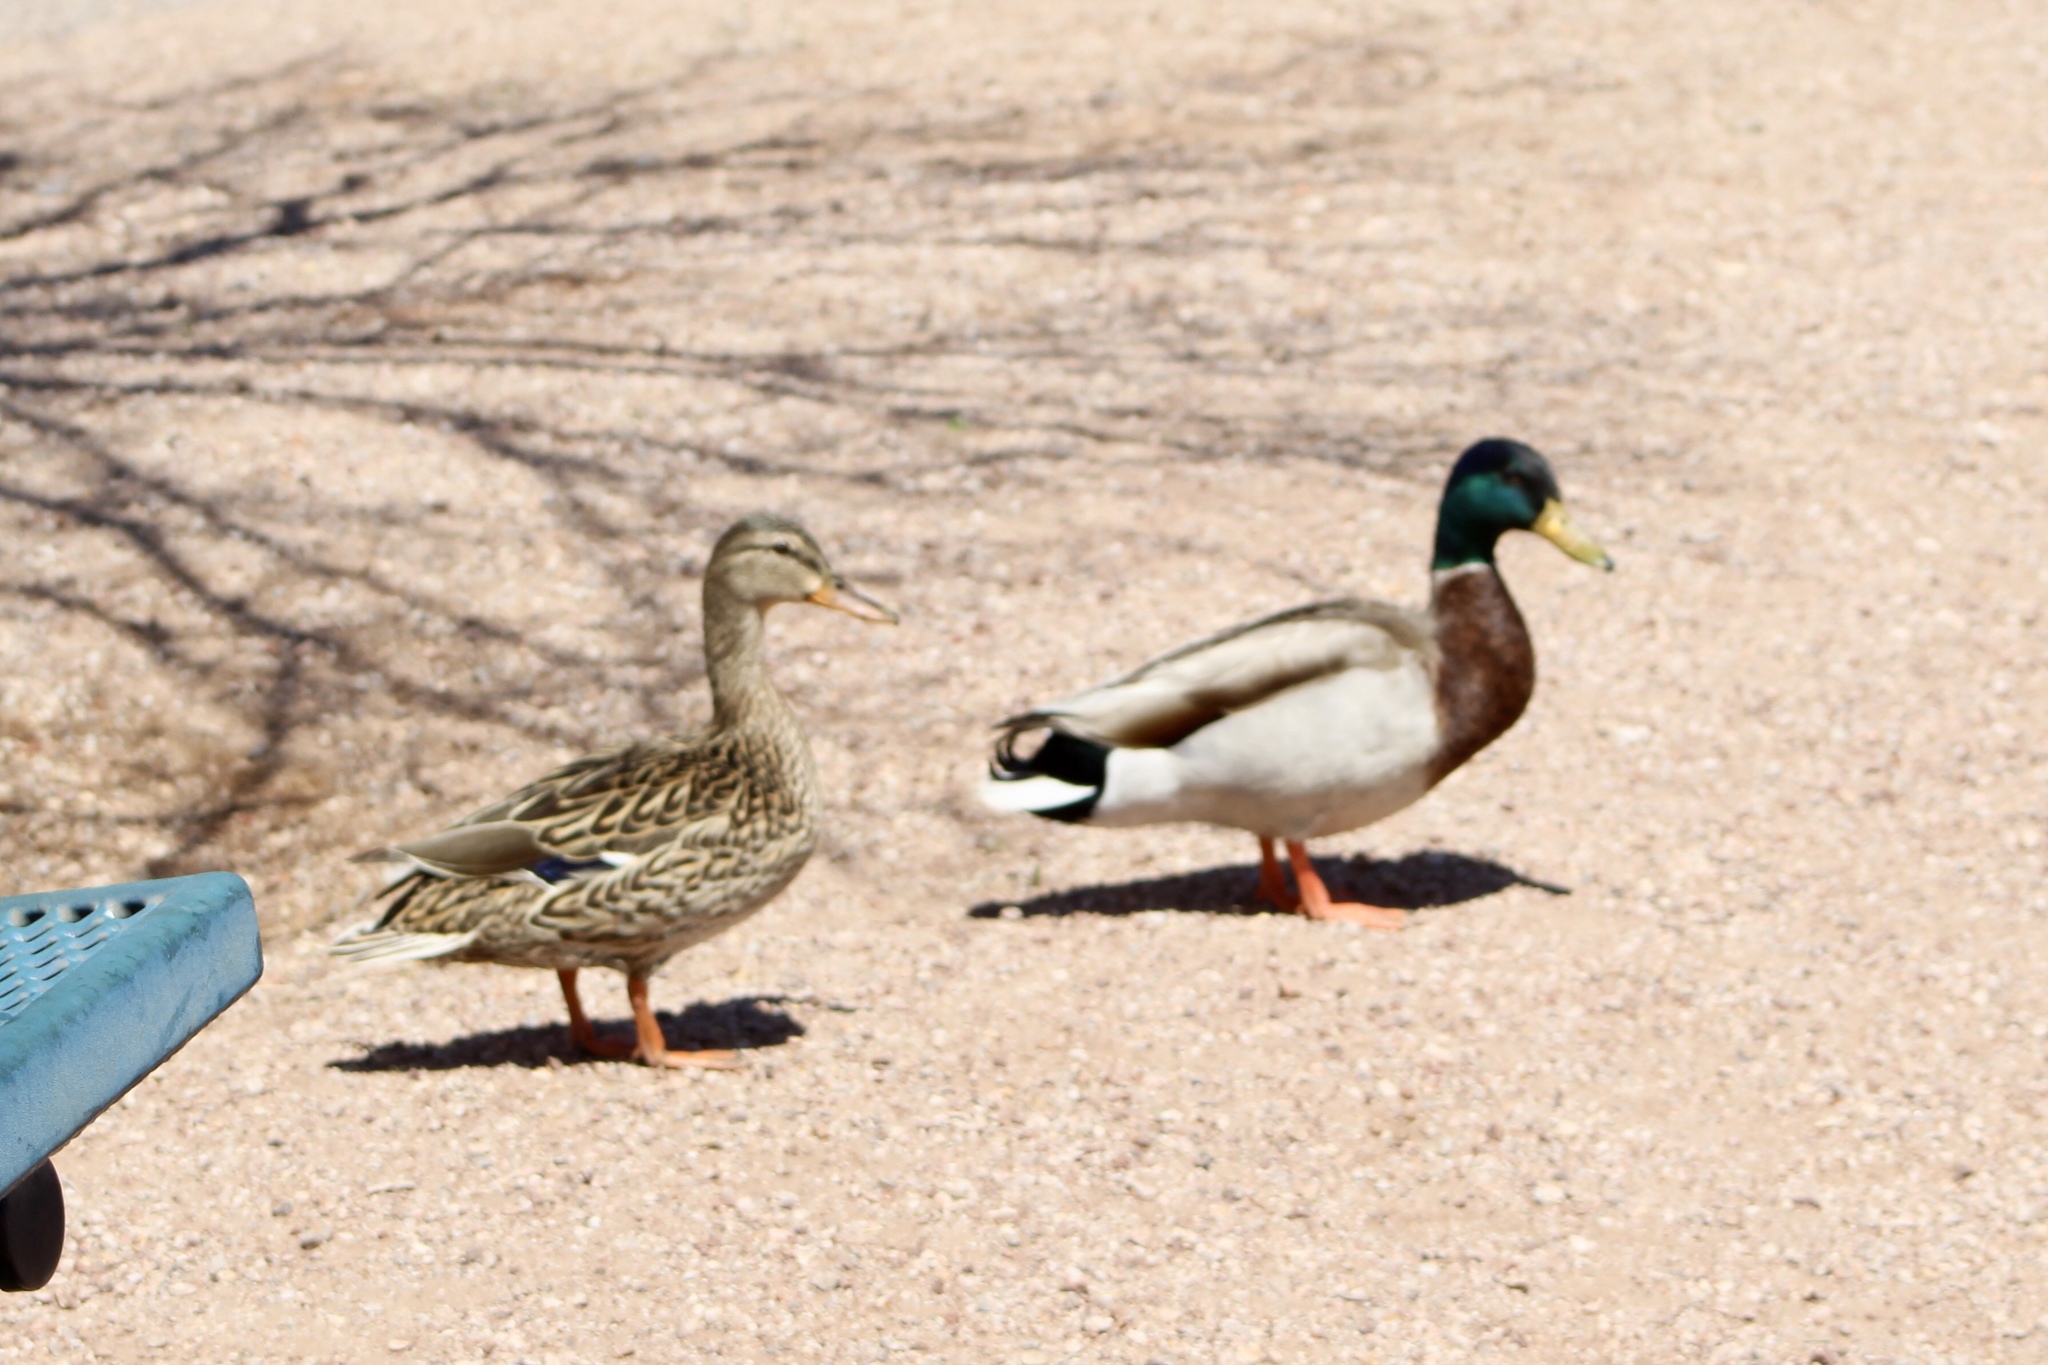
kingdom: Animalia
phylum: Chordata
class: Aves
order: Anseriformes
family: Anatidae
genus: Anas
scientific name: Anas platyrhynchos
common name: Mallard
